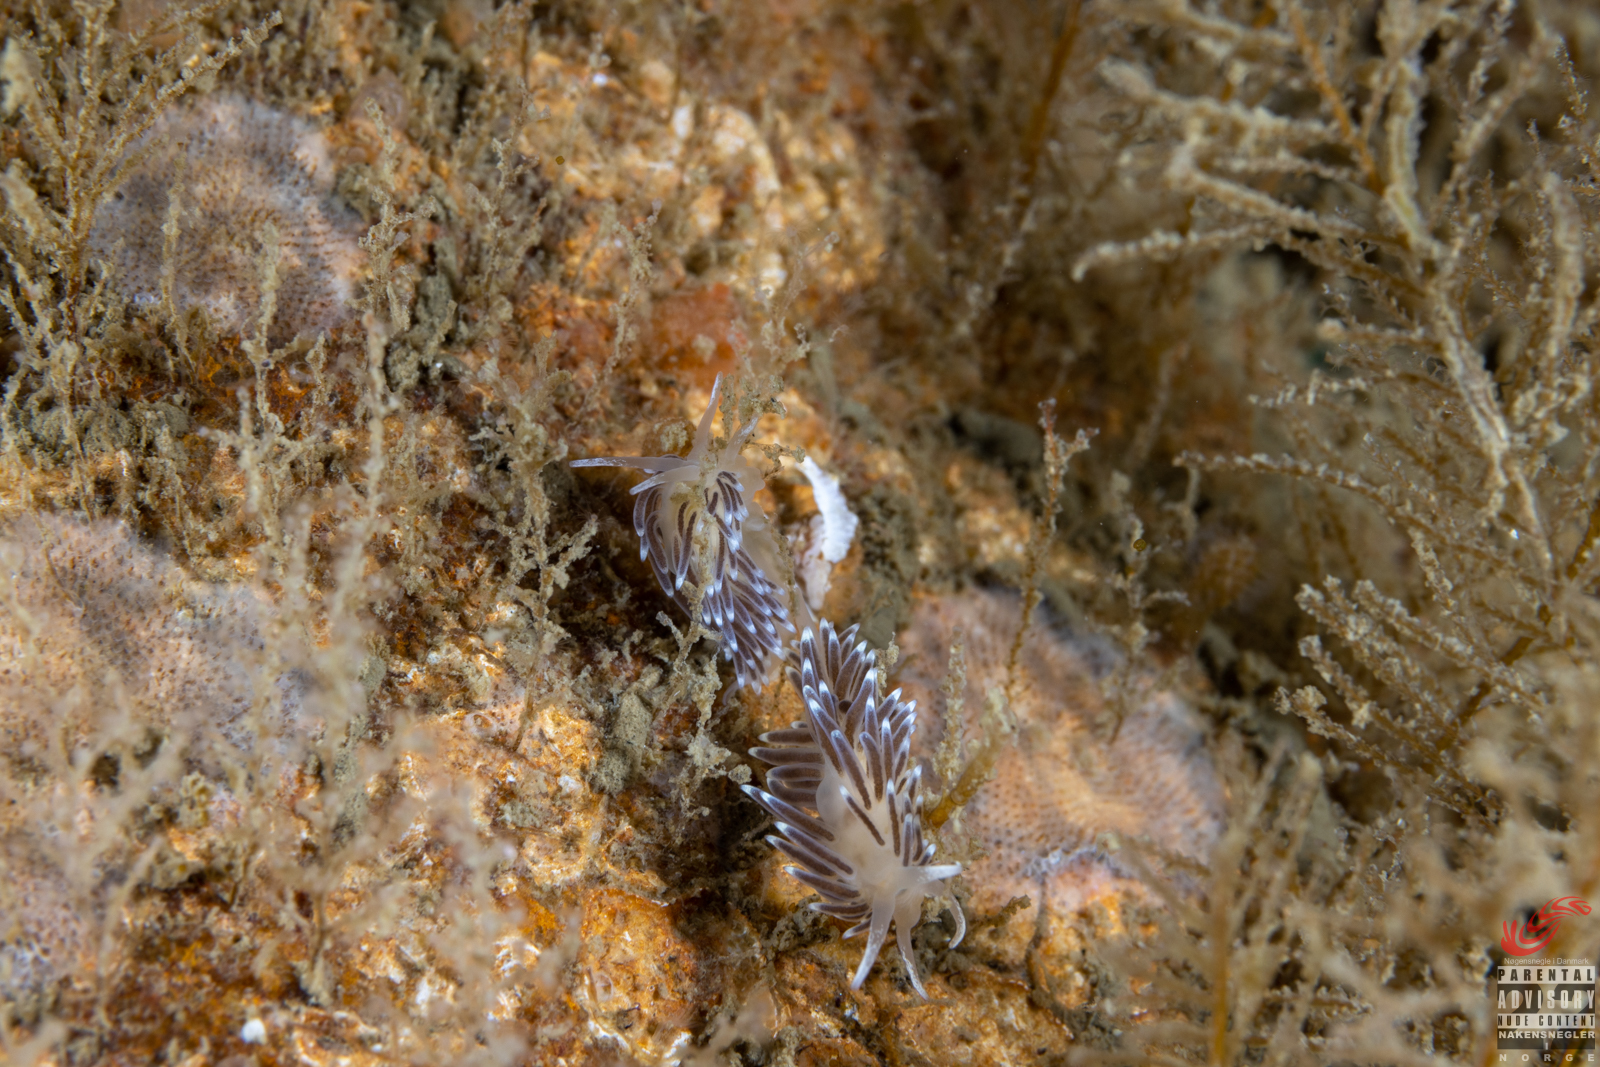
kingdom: Animalia
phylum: Mollusca
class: Gastropoda
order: Nudibranchia
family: Cuthonellidae
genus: Cuthonella
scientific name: Cuthonella concinna
